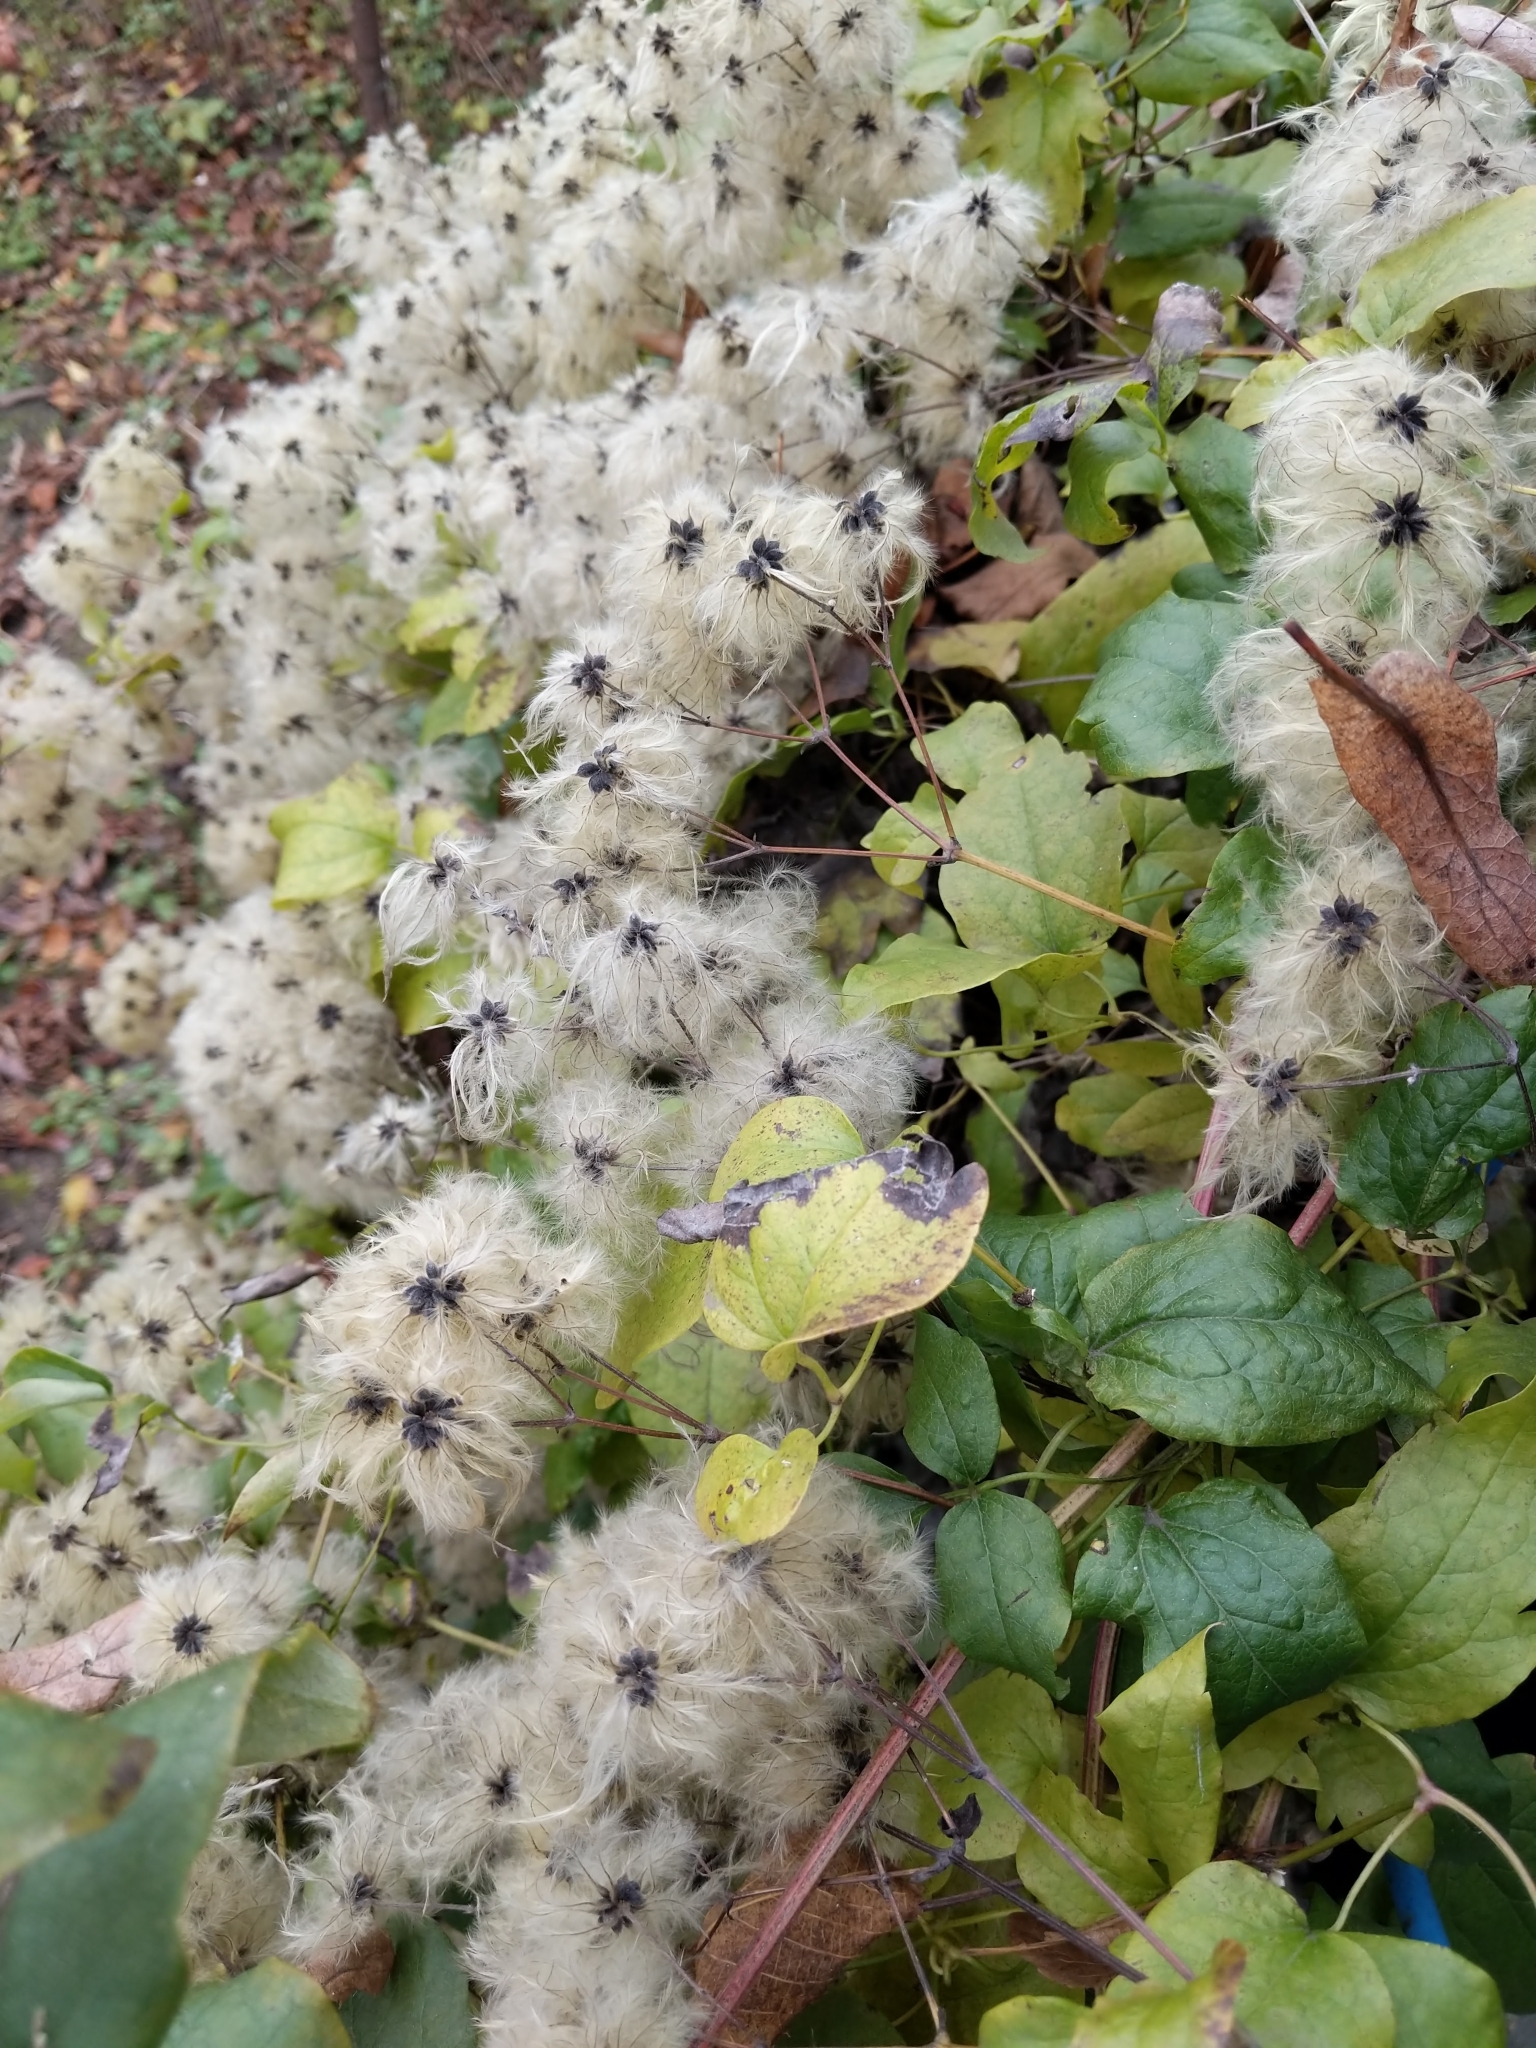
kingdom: Plantae
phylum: Tracheophyta
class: Magnoliopsida
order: Ranunculales
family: Ranunculaceae
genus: Clematis
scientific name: Clematis vitalba
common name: Evergreen clematis
